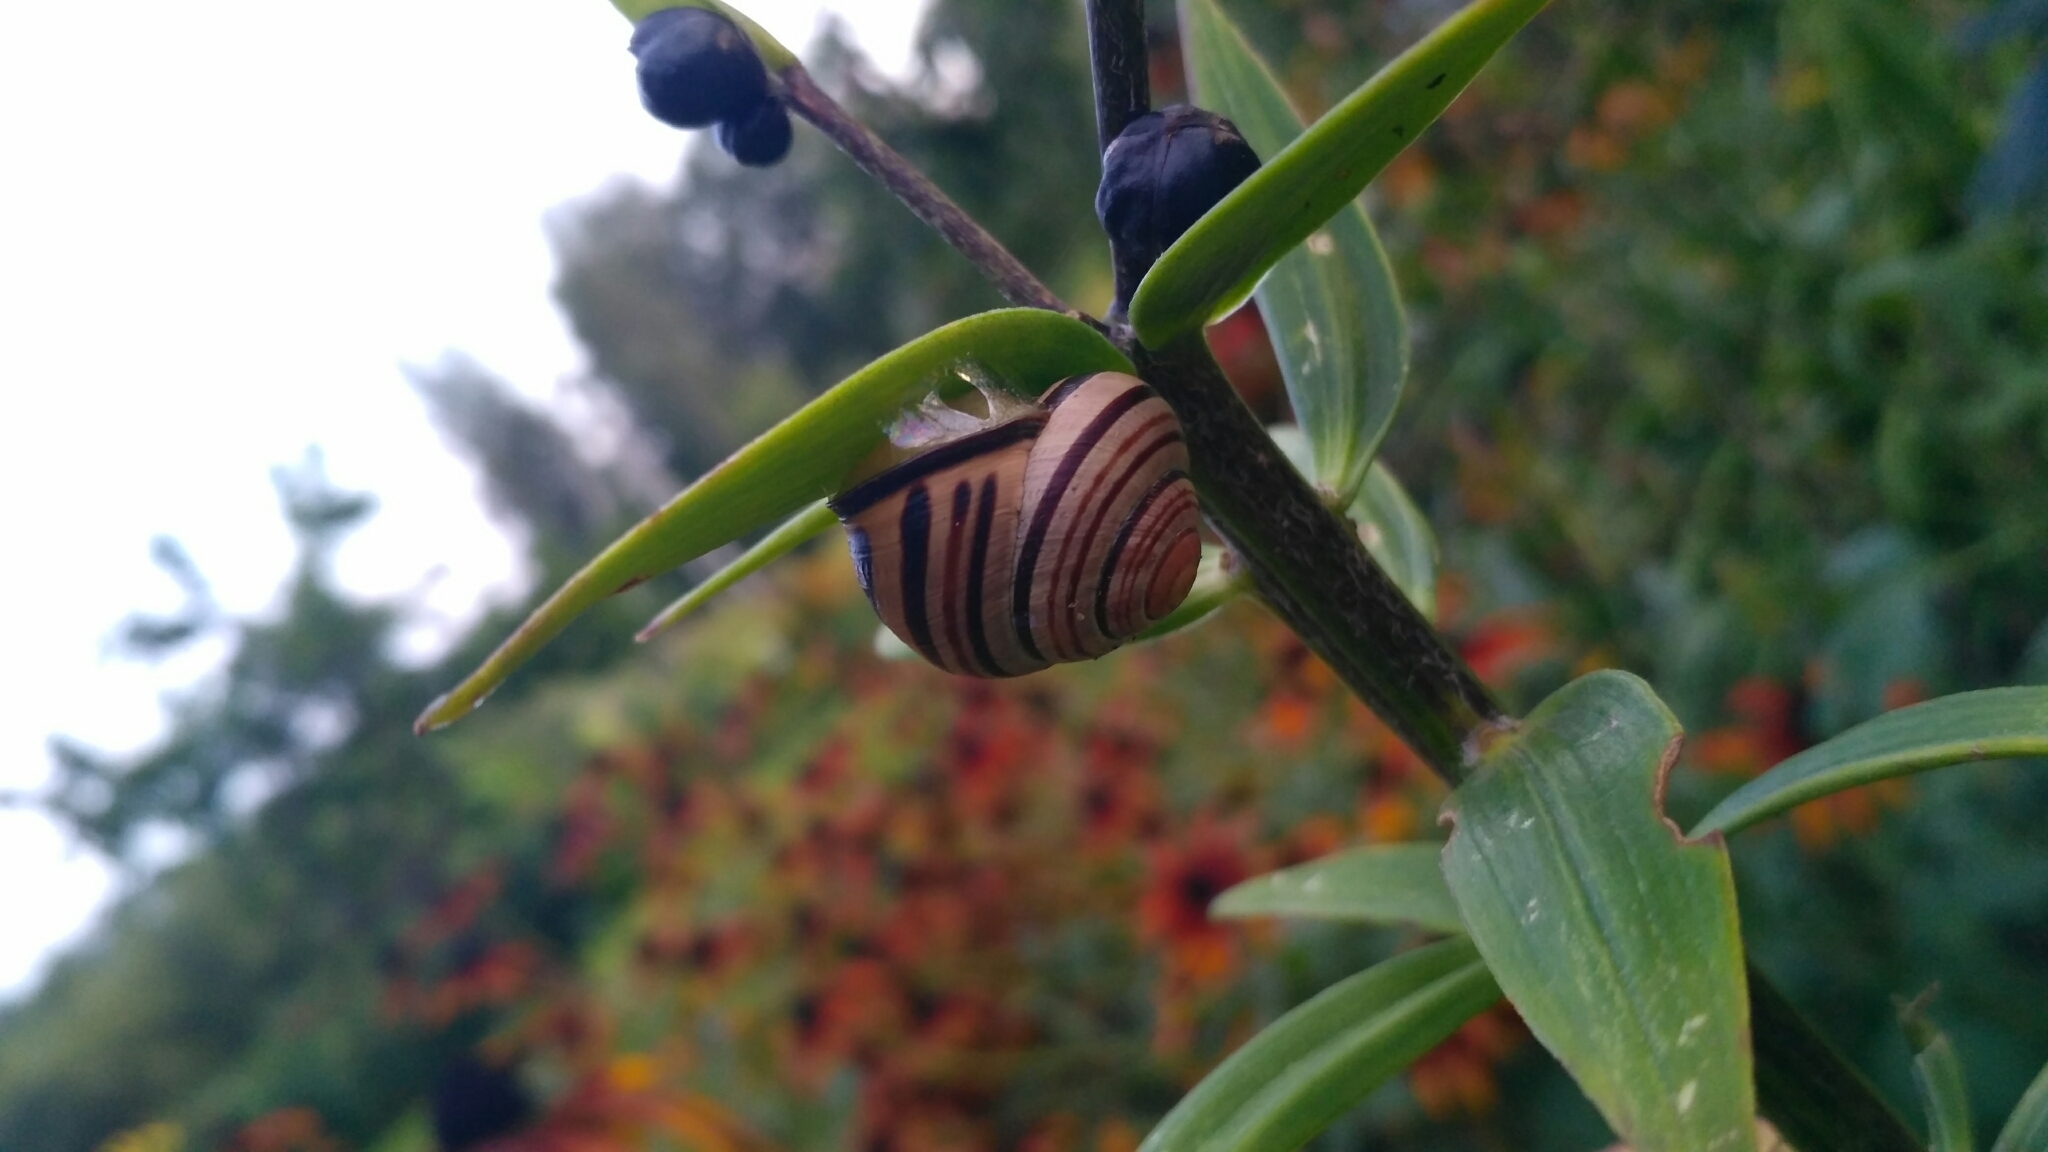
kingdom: Animalia
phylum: Mollusca
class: Gastropoda
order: Stylommatophora
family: Helicidae
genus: Cepaea
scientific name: Cepaea nemoralis
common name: Grovesnail
